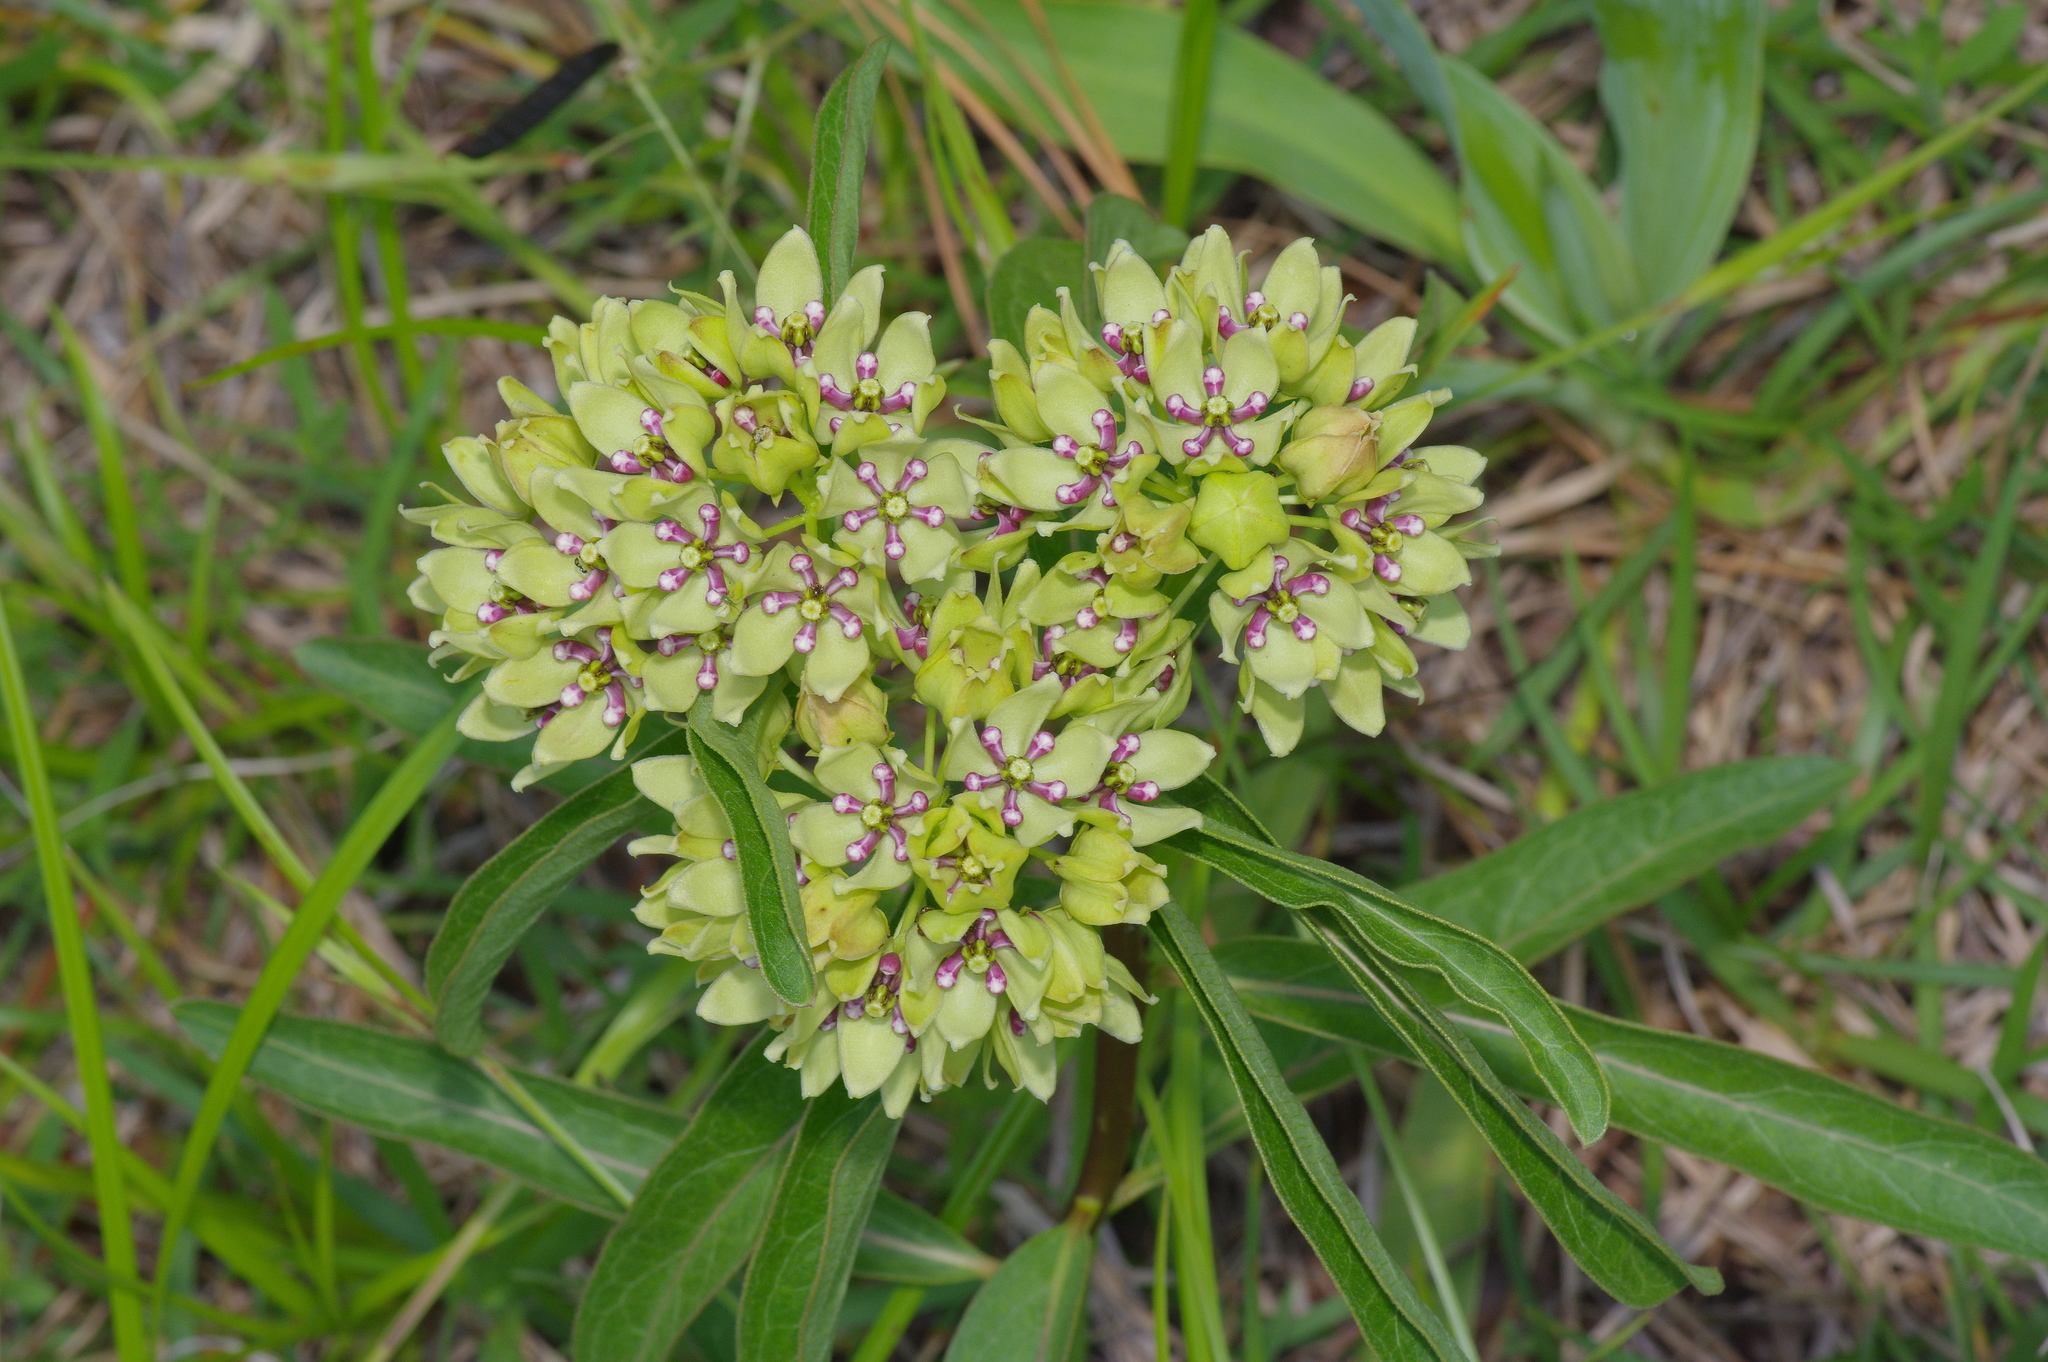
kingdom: Plantae
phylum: Tracheophyta
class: Magnoliopsida
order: Gentianales
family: Apocynaceae
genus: Asclepias
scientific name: Asclepias viridis
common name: Antelope-horns
